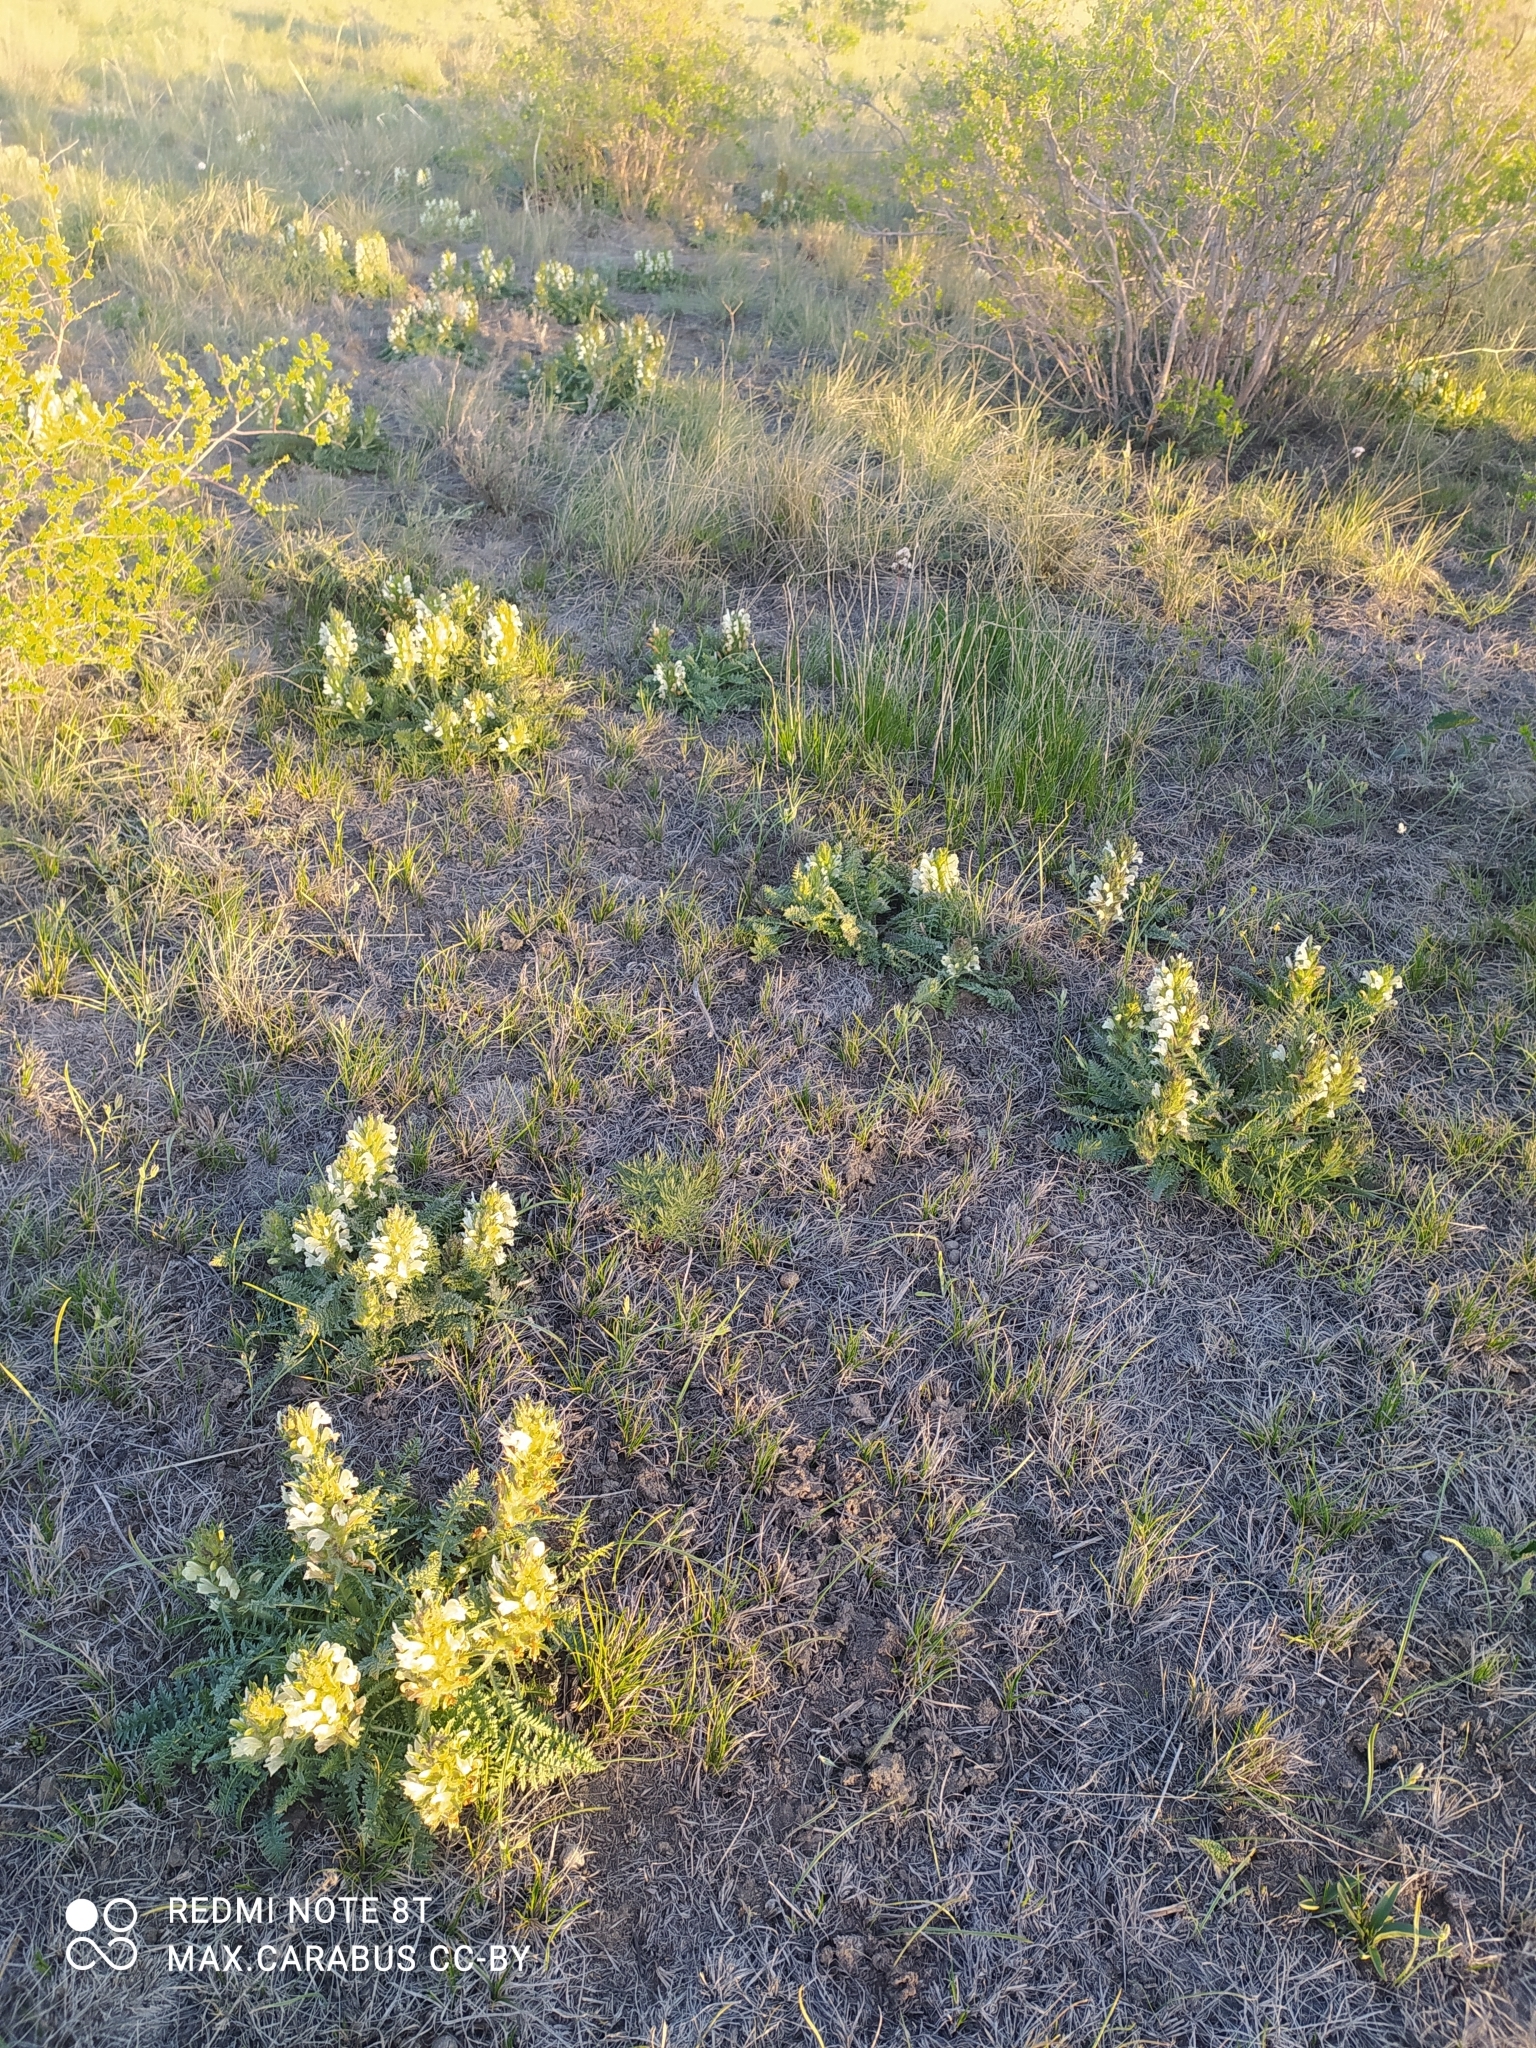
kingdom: Plantae
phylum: Tracheophyta
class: Magnoliopsida
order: Lamiales
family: Orobanchaceae
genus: Pedicularis
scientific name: Pedicularis physocalyx
